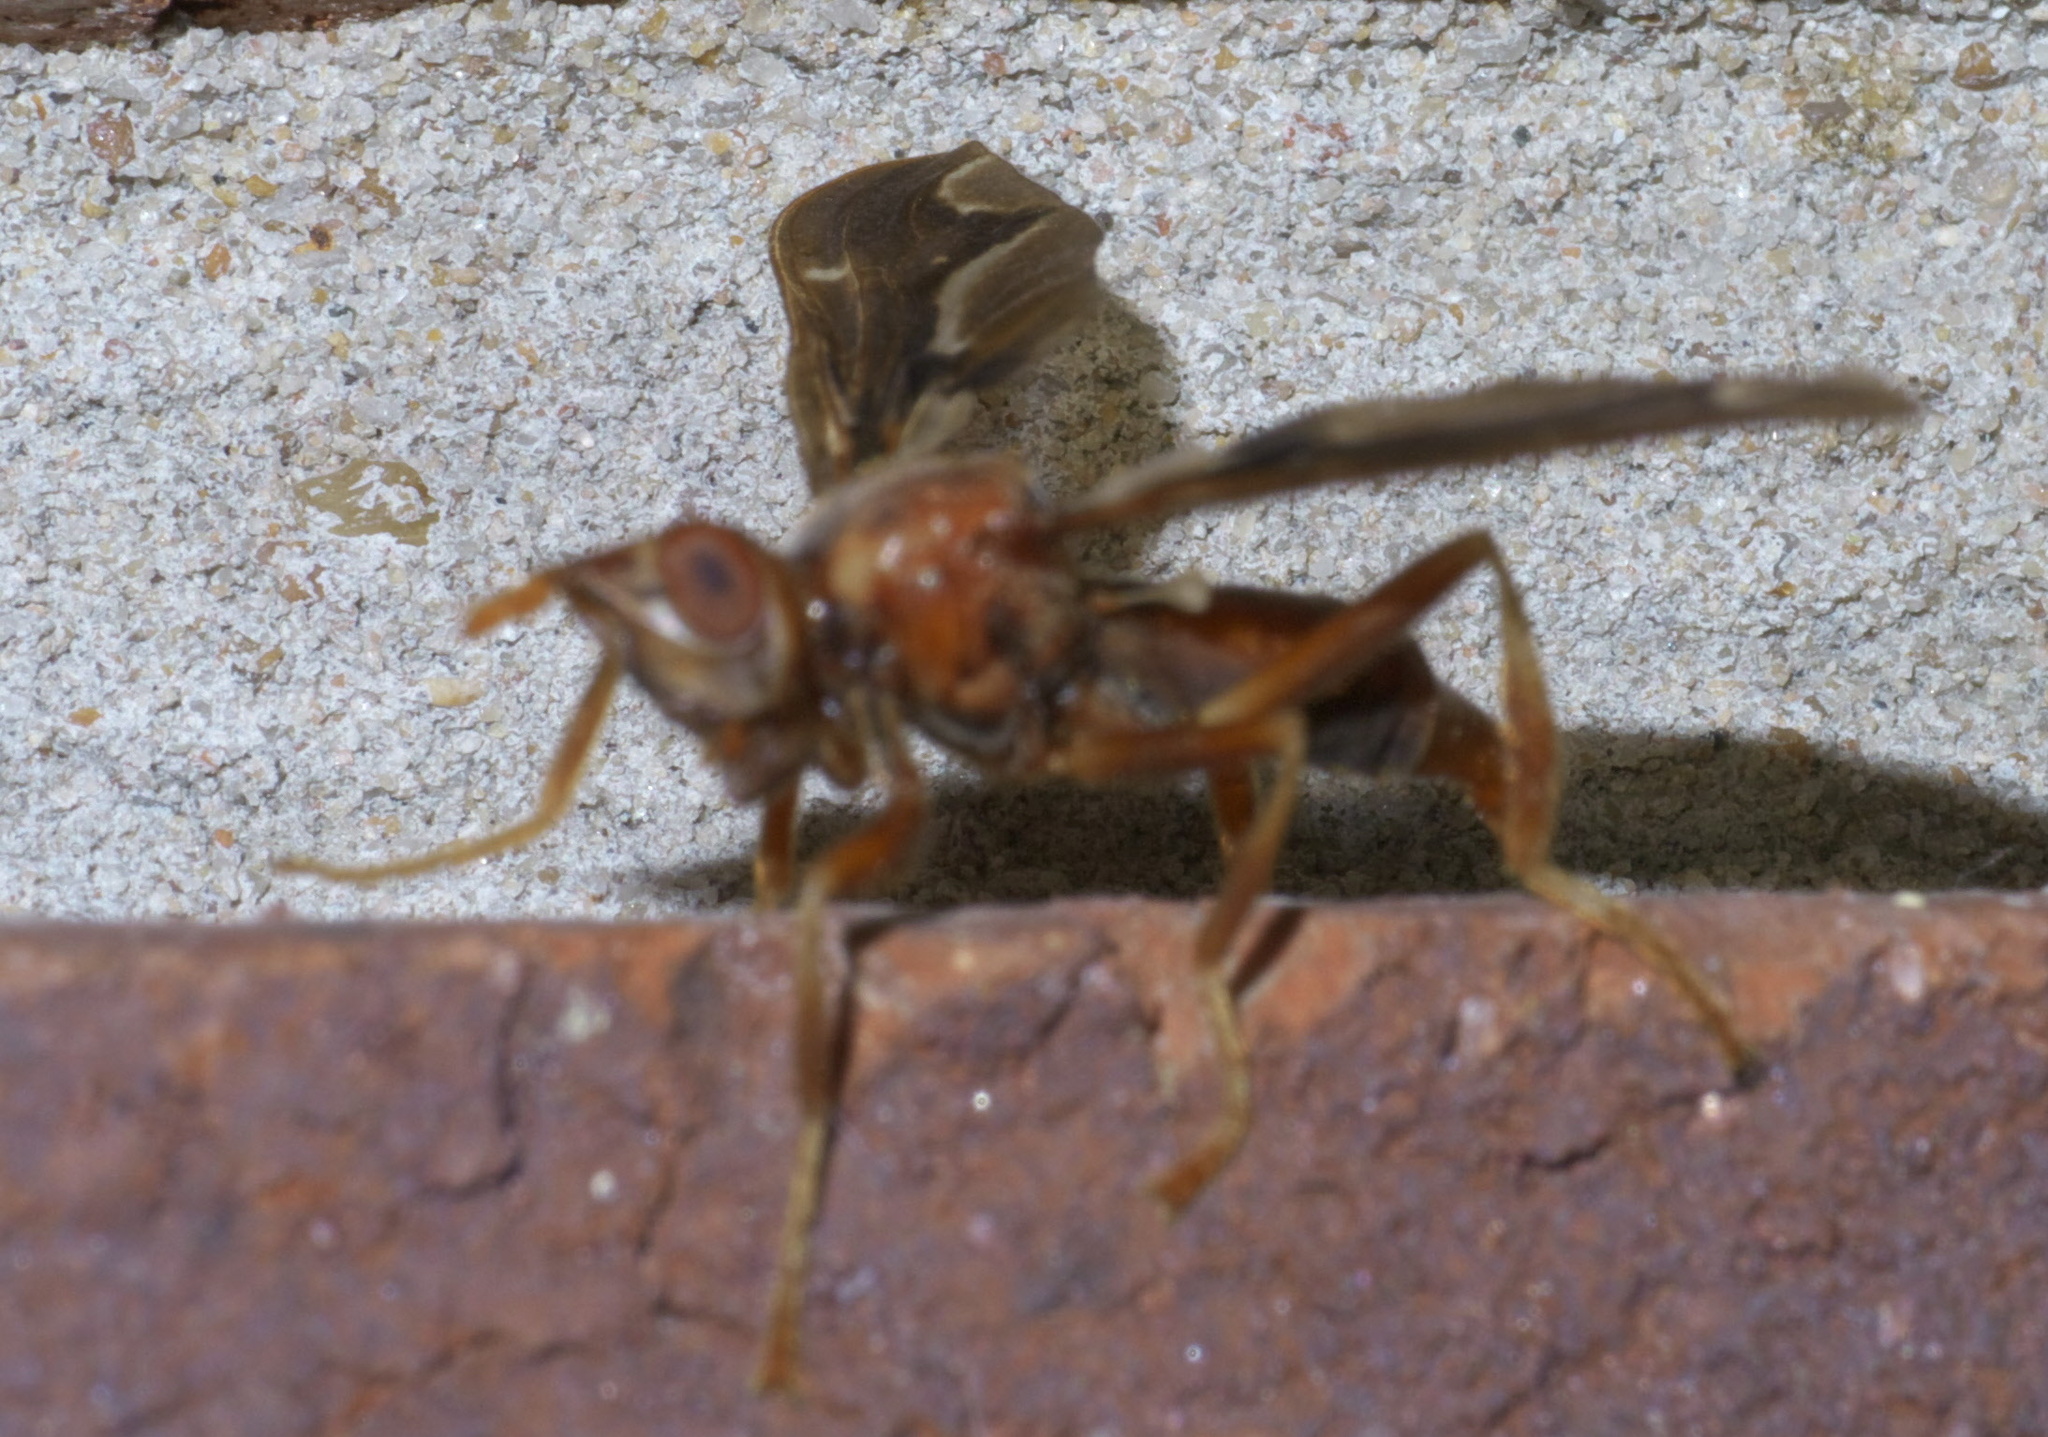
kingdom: Animalia
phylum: Arthropoda
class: Insecta
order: Diptera
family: Pyrgotidae
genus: Pyrgota
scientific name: Pyrgota undata
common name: Waved light fly
